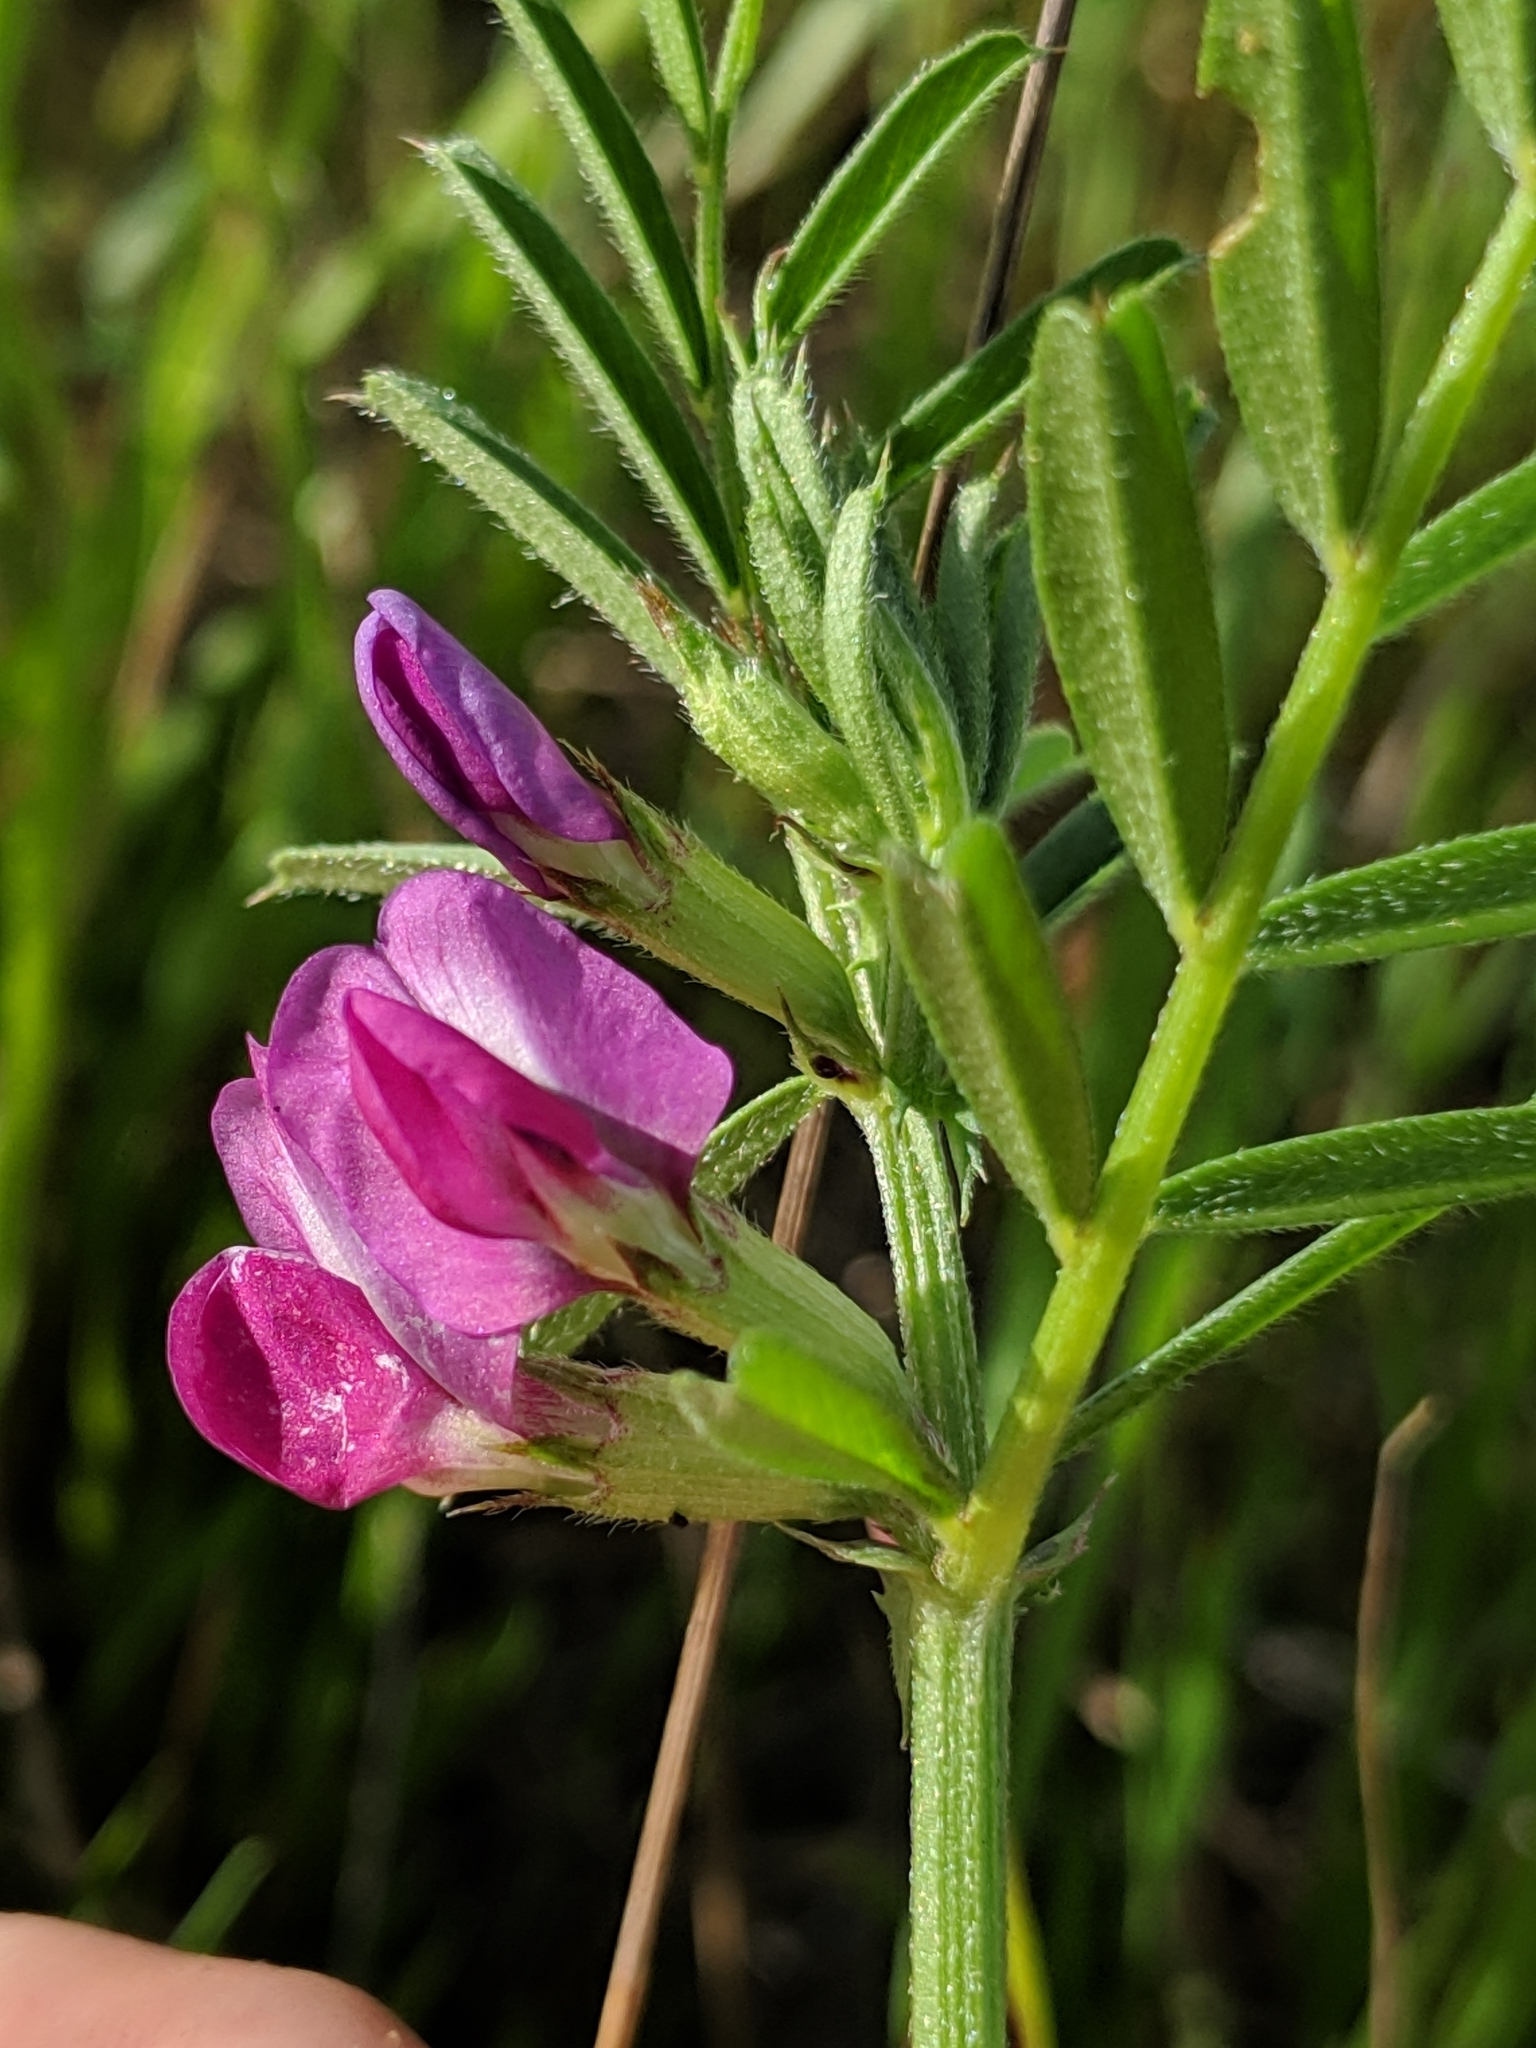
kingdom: Plantae
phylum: Tracheophyta
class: Magnoliopsida
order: Fabales
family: Fabaceae
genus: Vicia
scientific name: Vicia sativa
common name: Garden vetch
